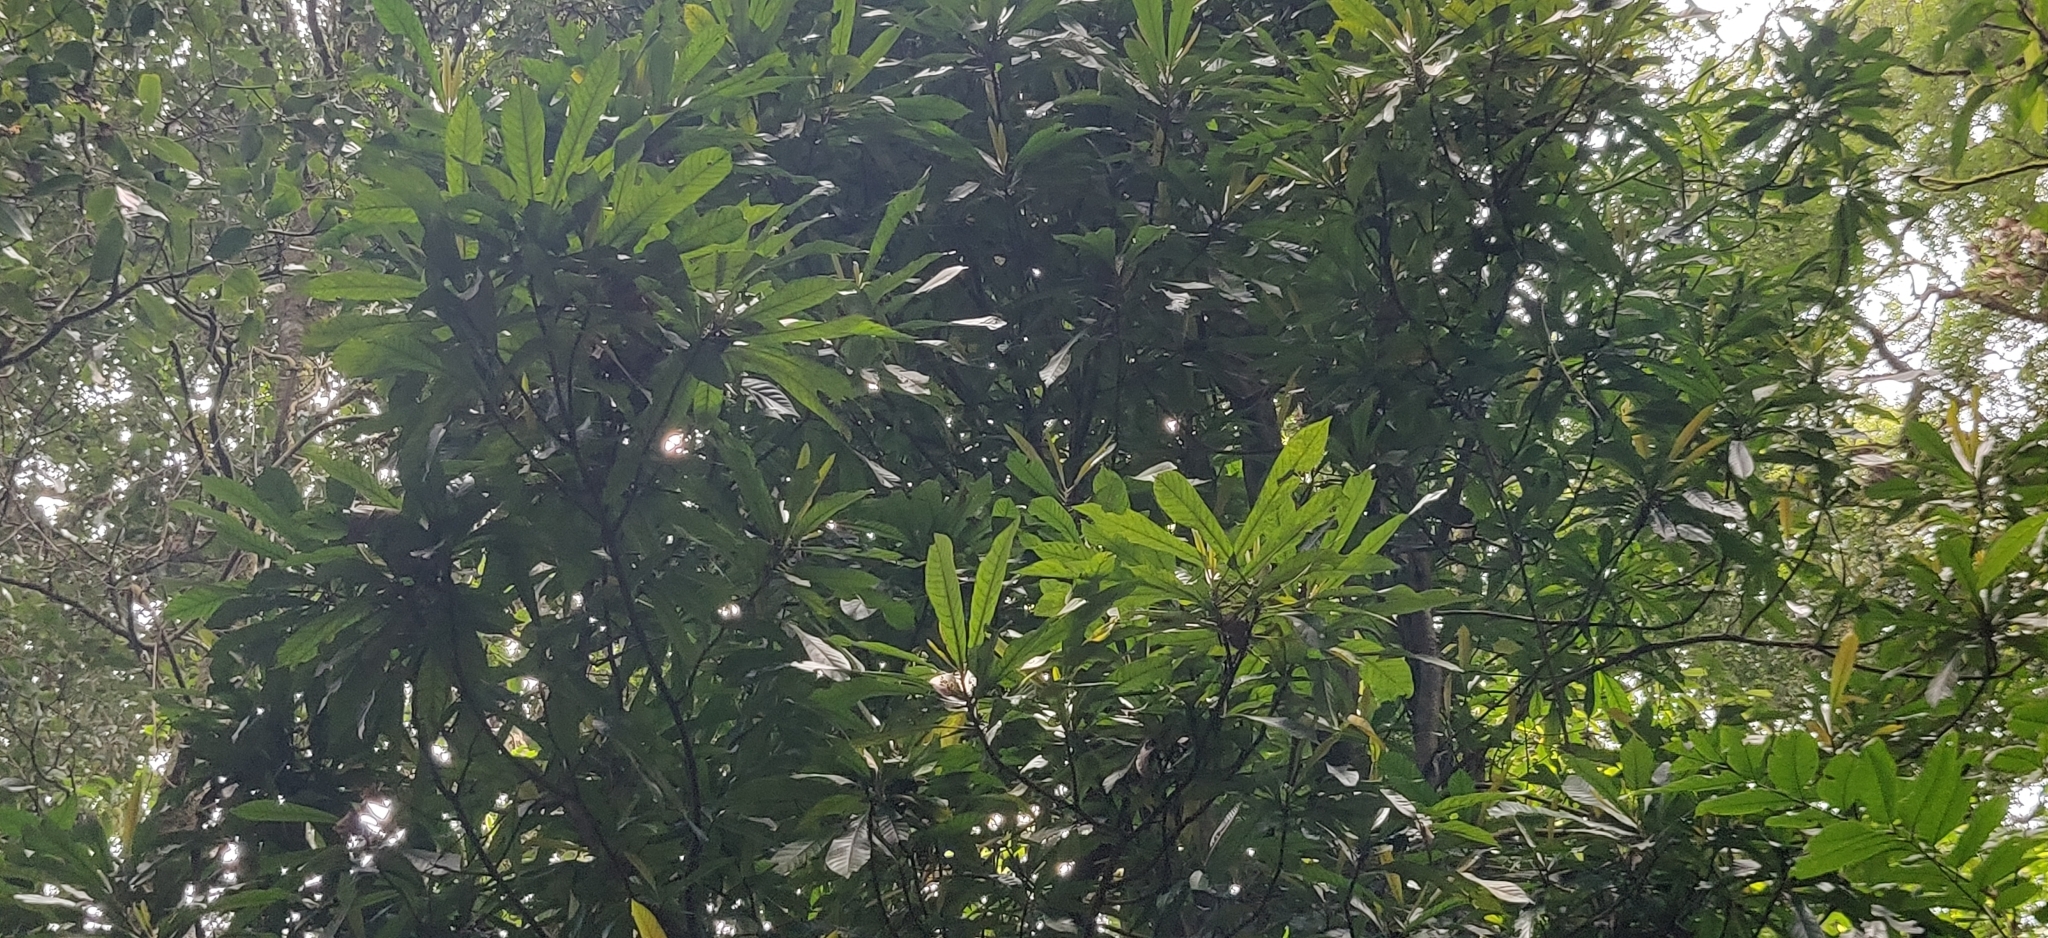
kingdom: Plantae
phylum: Tracheophyta
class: Magnoliopsida
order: Malpighiales
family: Euphorbiaceae
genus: Agrostistachys
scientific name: Agrostistachys borneensis
